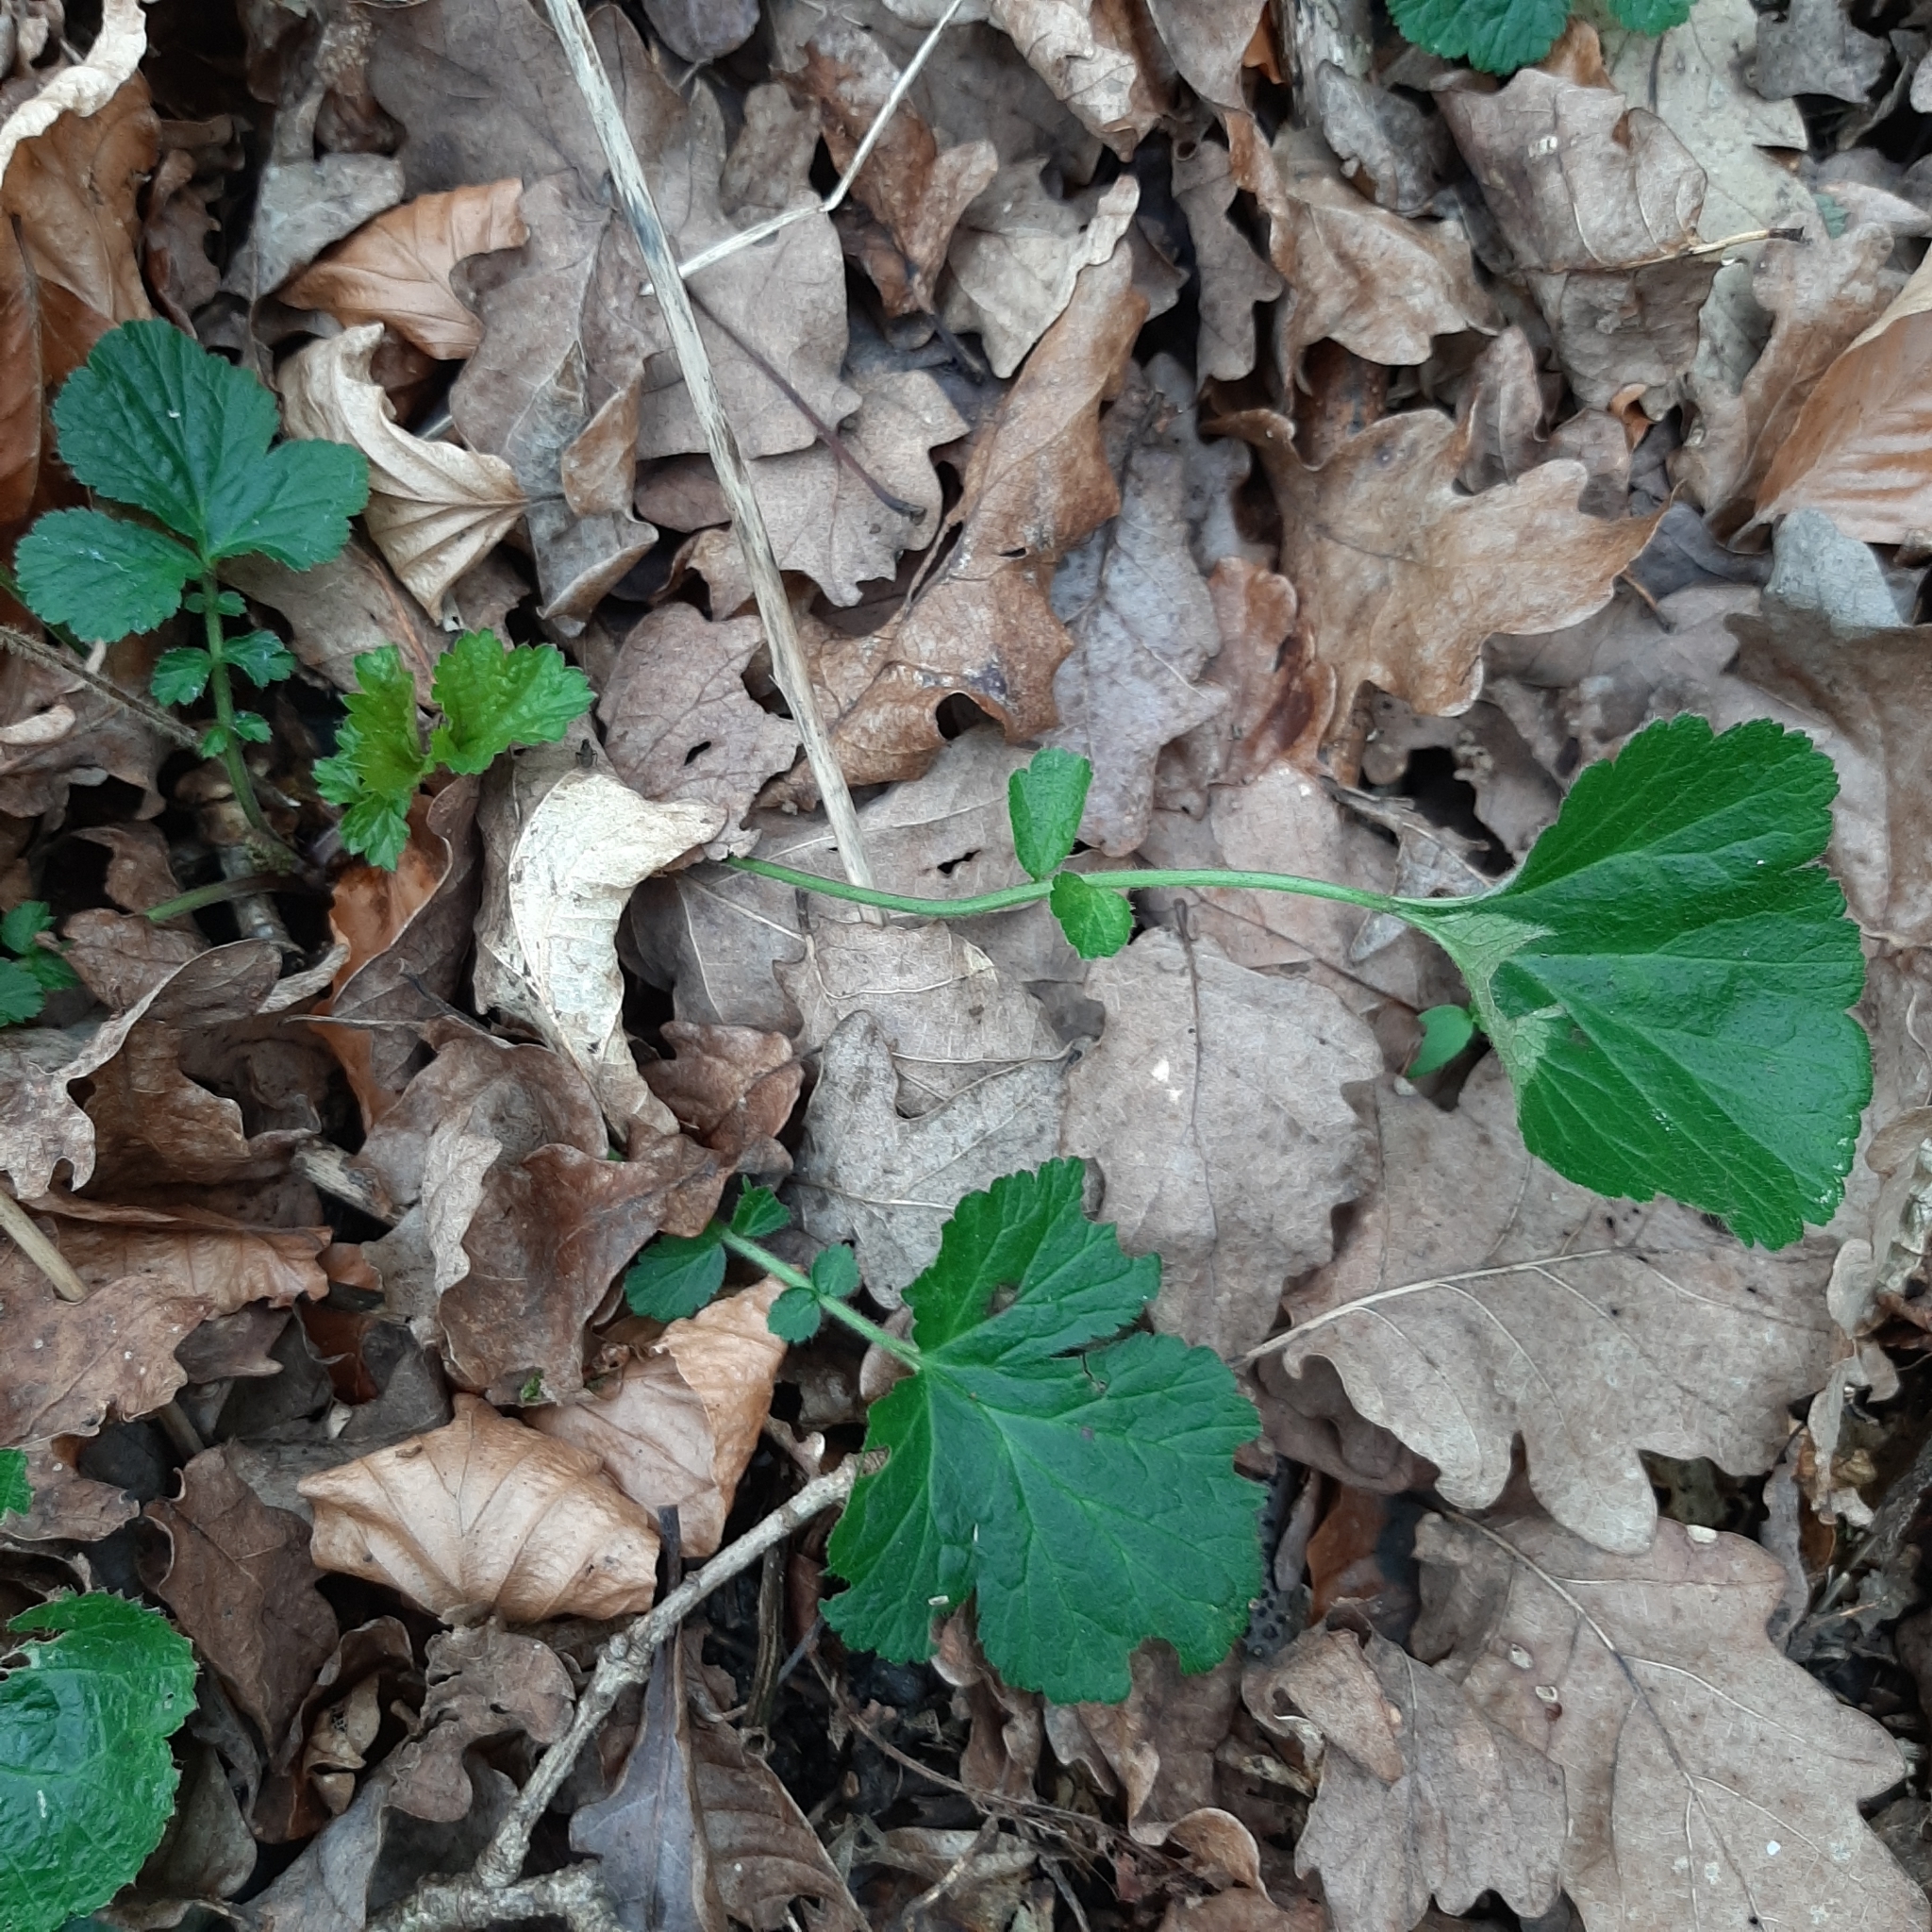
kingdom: Plantae
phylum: Tracheophyta
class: Magnoliopsida
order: Rosales
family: Rosaceae
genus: Geum
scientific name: Geum urbanum
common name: Wood avens
